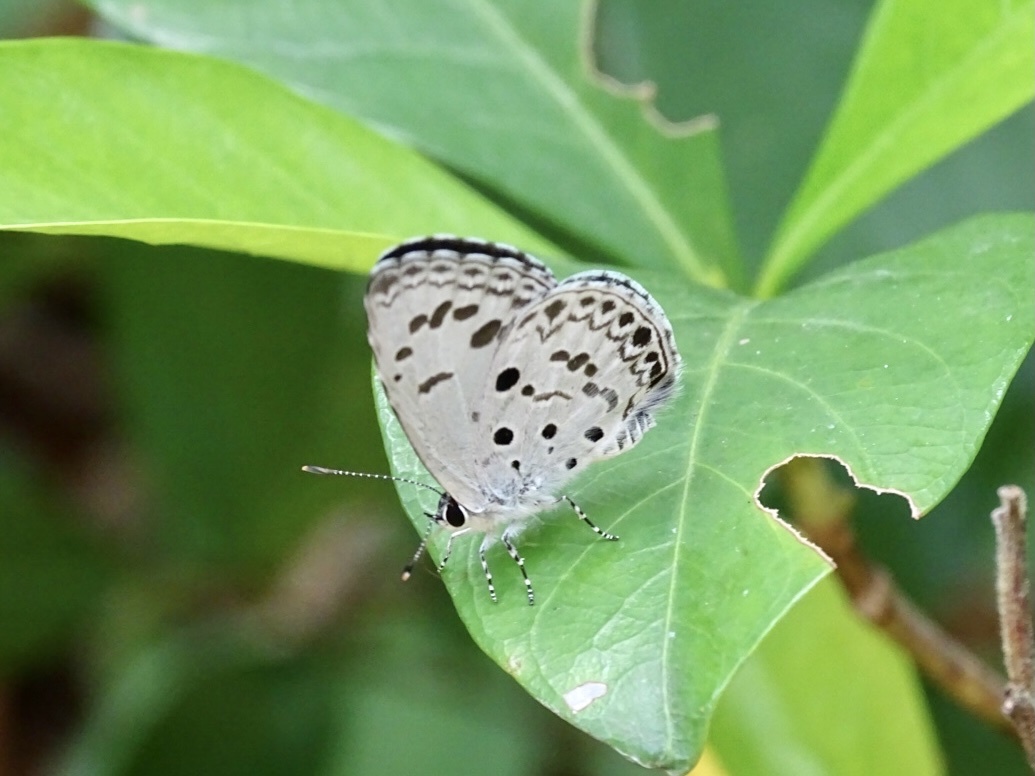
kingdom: Animalia
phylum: Arthropoda
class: Insecta
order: Lepidoptera
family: Lycaenidae
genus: Acytolepis
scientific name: Acytolepis puspa
